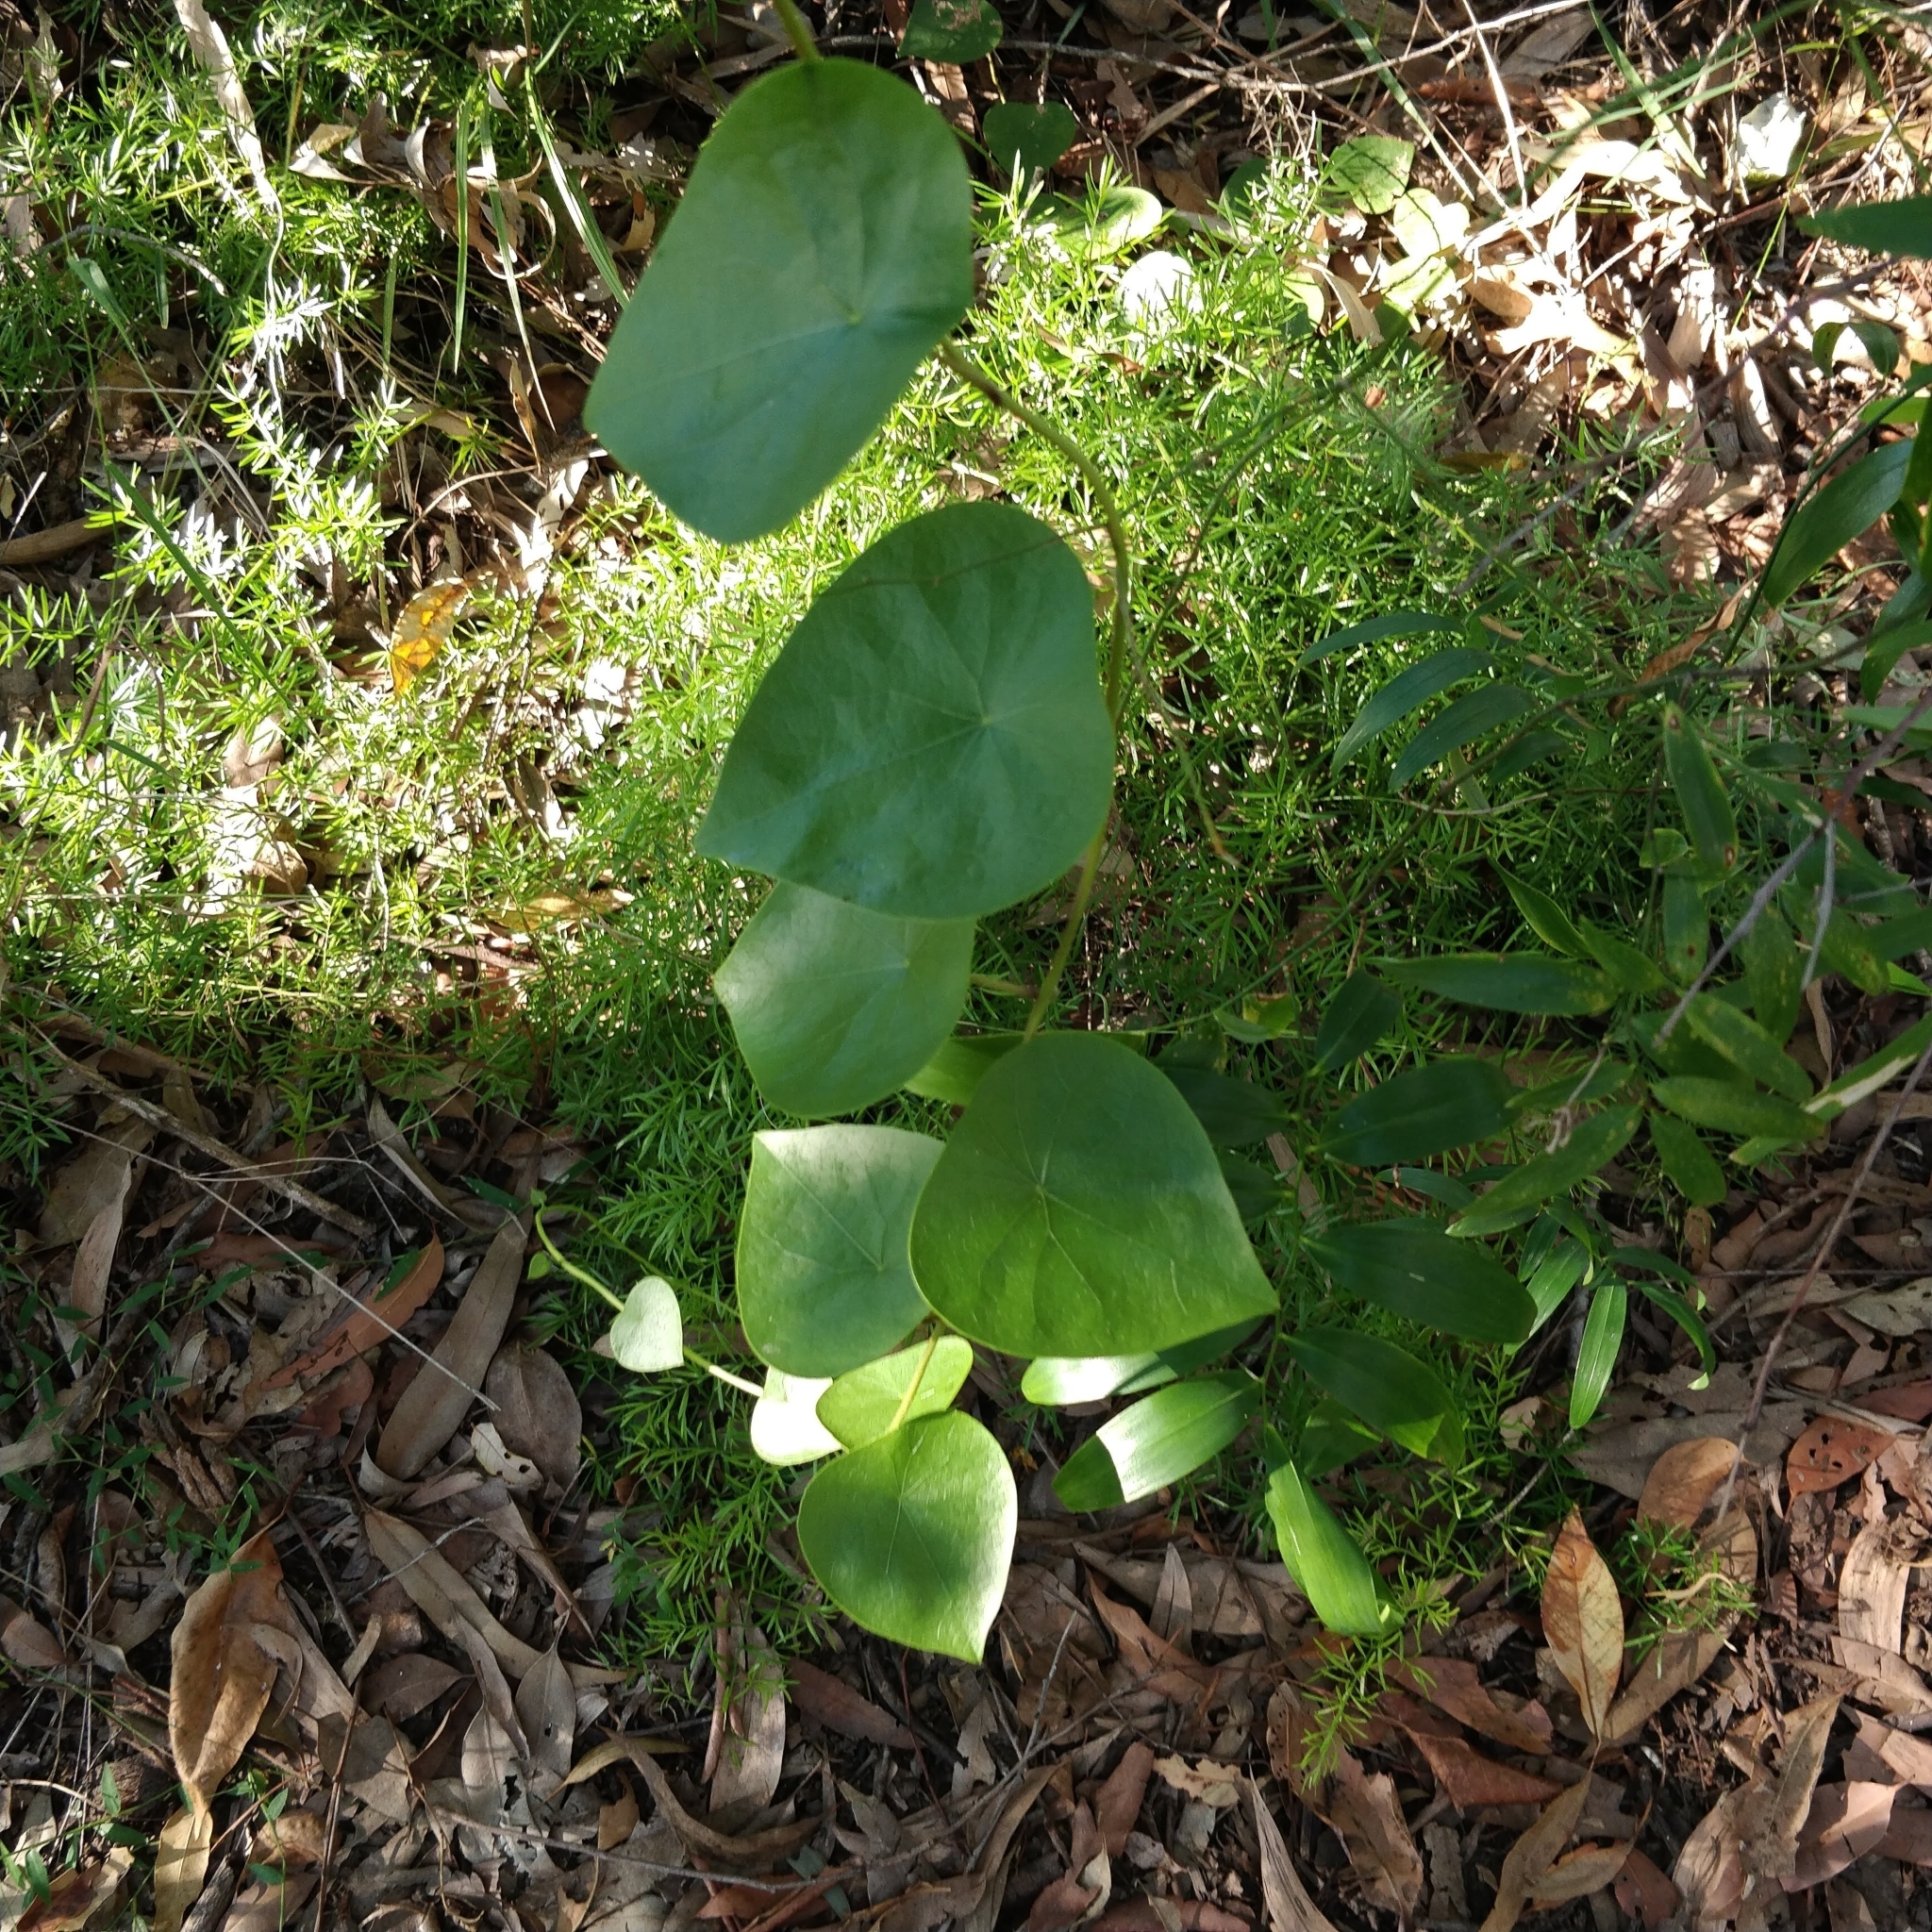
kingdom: Plantae
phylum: Tracheophyta
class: Magnoliopsida
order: Ranunculales
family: Menispermaceae
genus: Stephania
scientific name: Stephania japonica
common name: Snake vine
